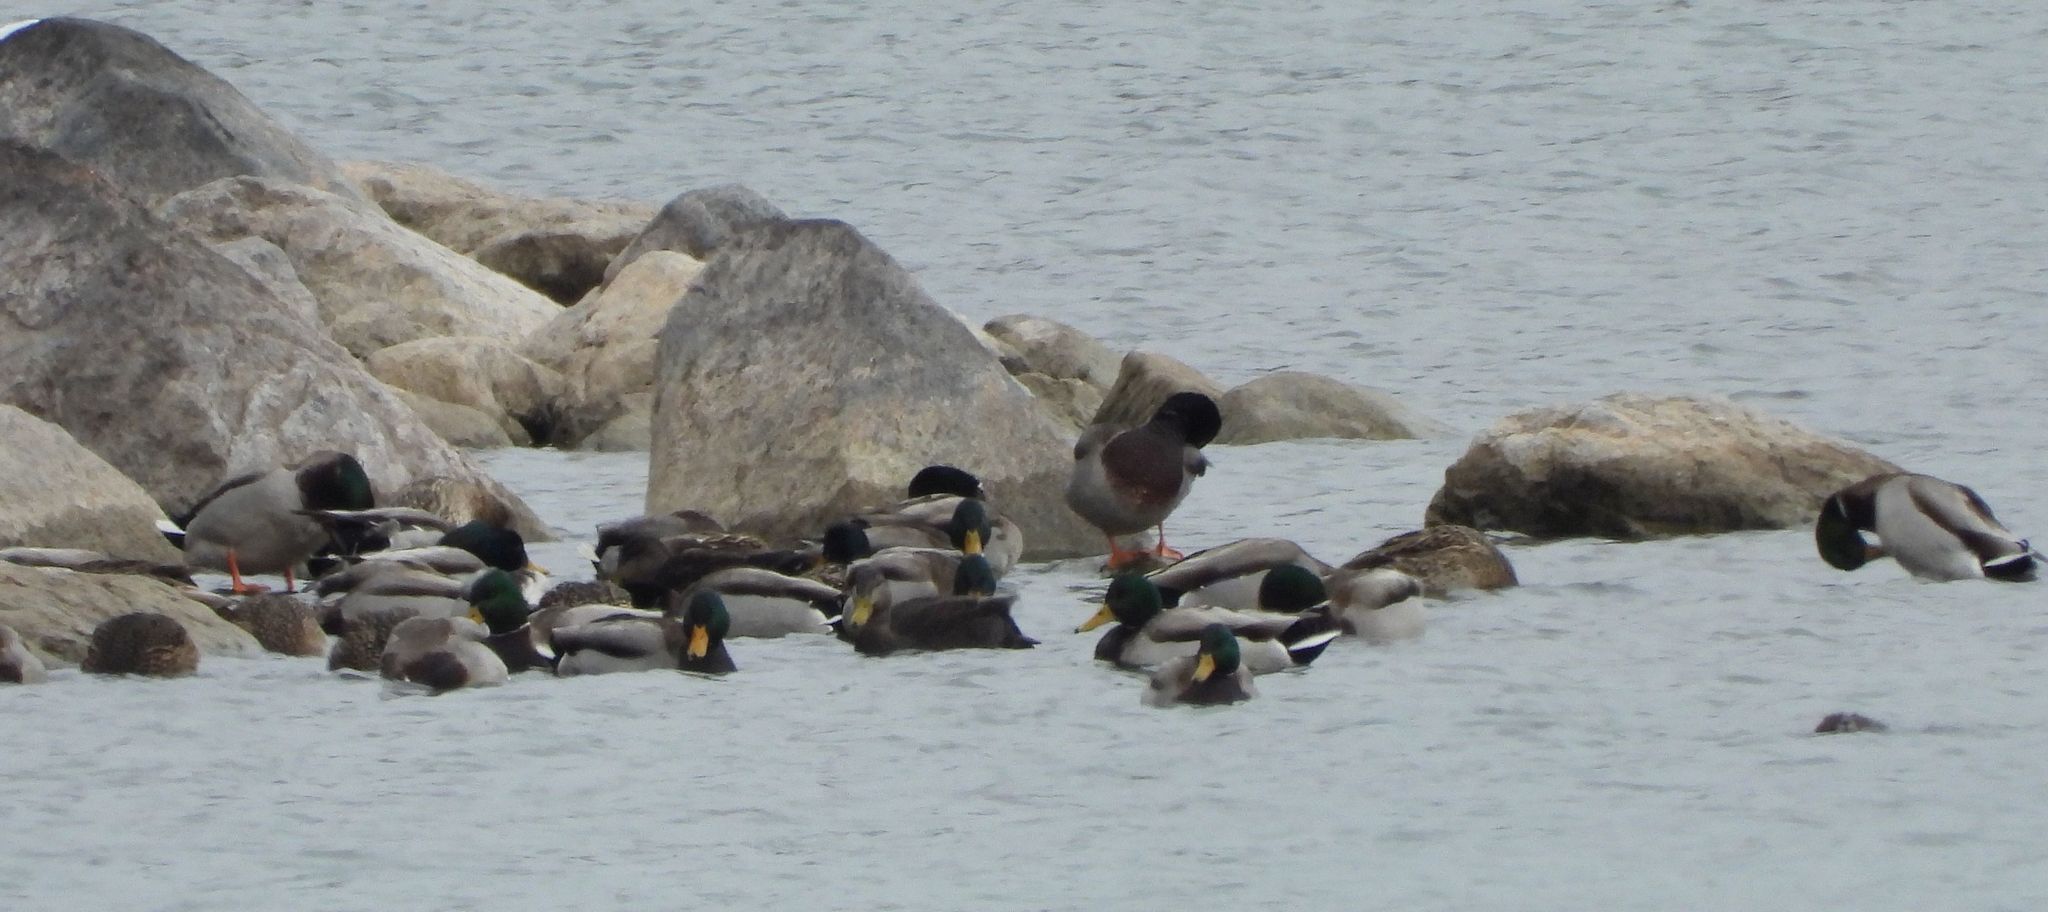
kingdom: Animalia
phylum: Chordata
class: Aves
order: Anseriformes
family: Anatidae
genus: Anas
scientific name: Anas platyrhynchos
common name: Mallard
